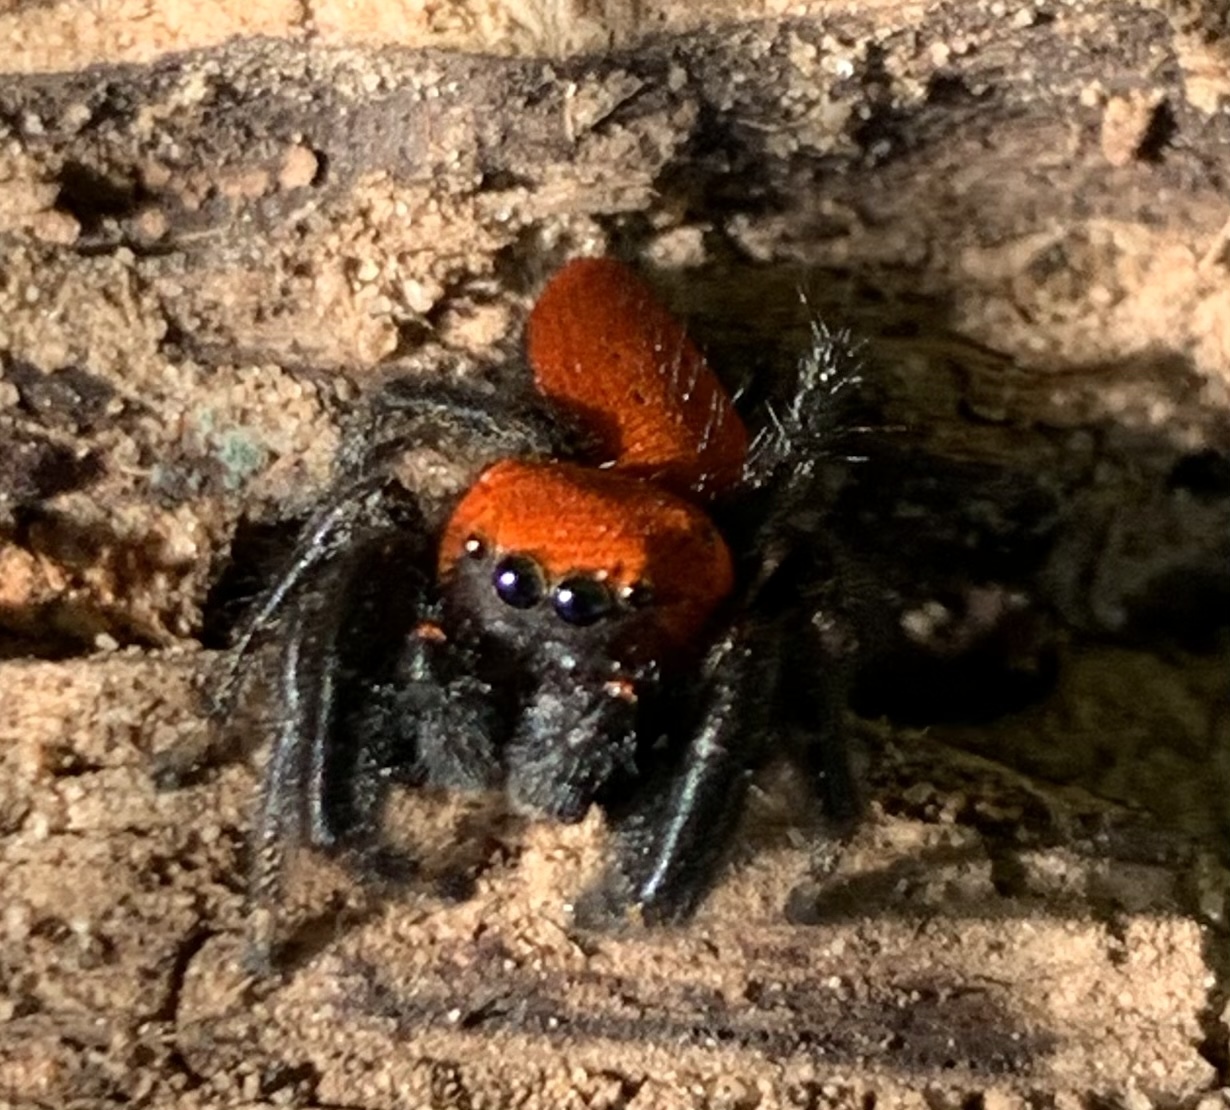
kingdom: Animalia
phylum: Arthropoda
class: Arachnida
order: Araneae
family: Salticidae
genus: Phidippus
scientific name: Phidippus cardinalis
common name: Cardinal jumper
